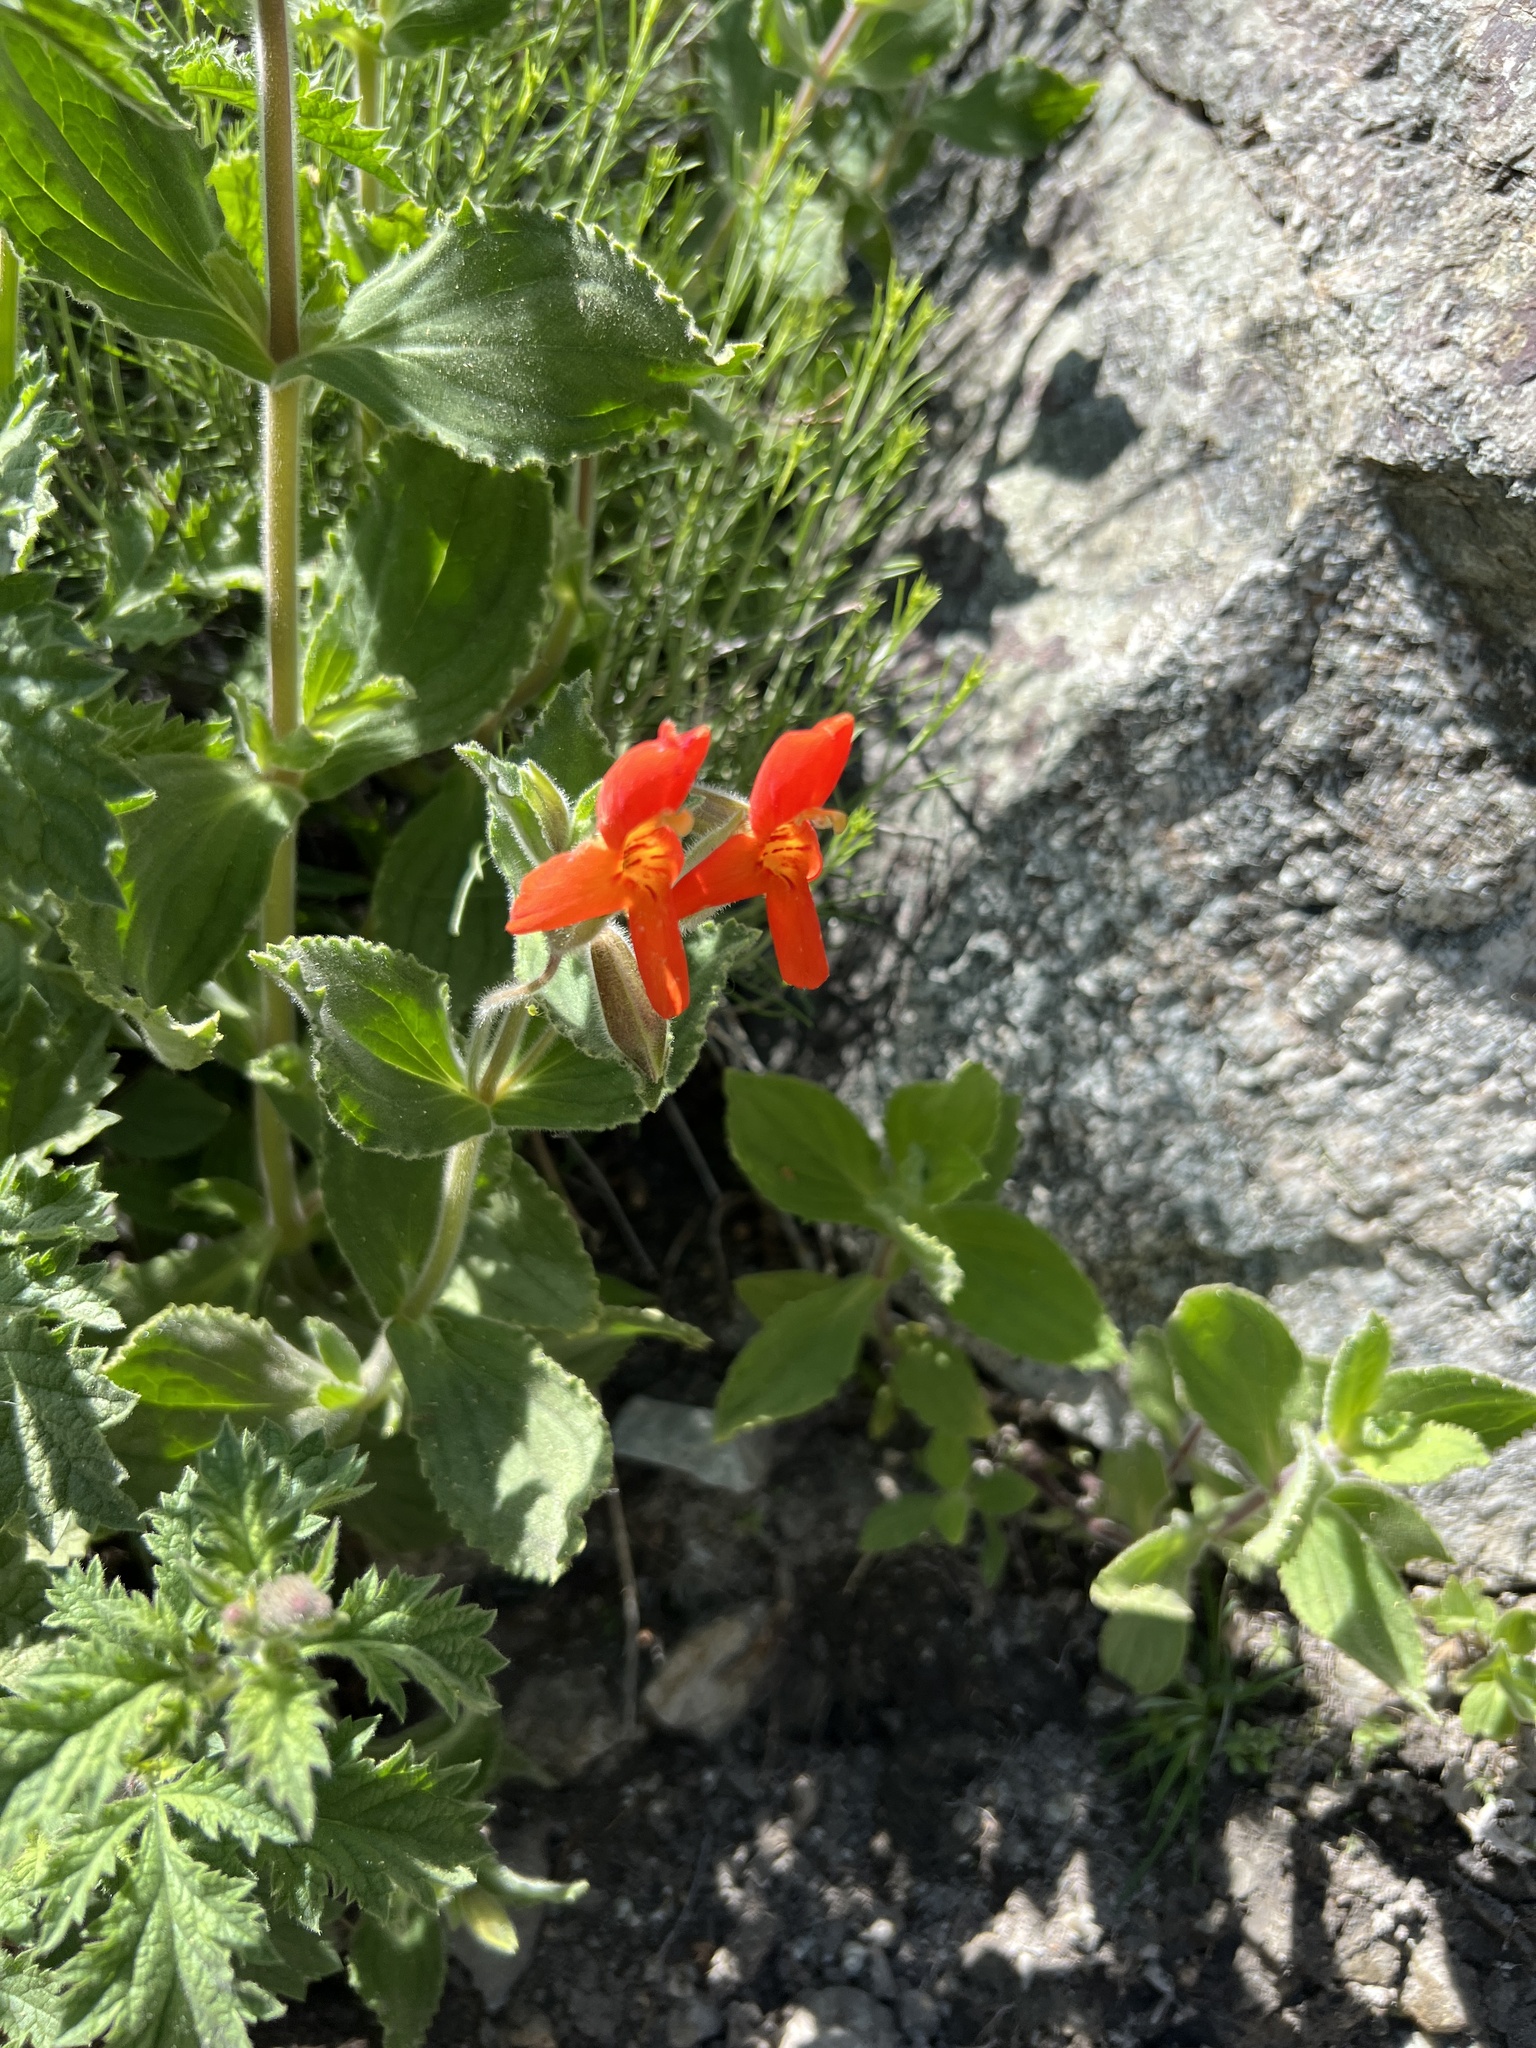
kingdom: Plantae
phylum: Tracheophyta
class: Magnoliopsida
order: Lamiales
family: Phrymaceae
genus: Erythranthe
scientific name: Erythranthe cardinalis
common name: Scarlet monkey-flower
